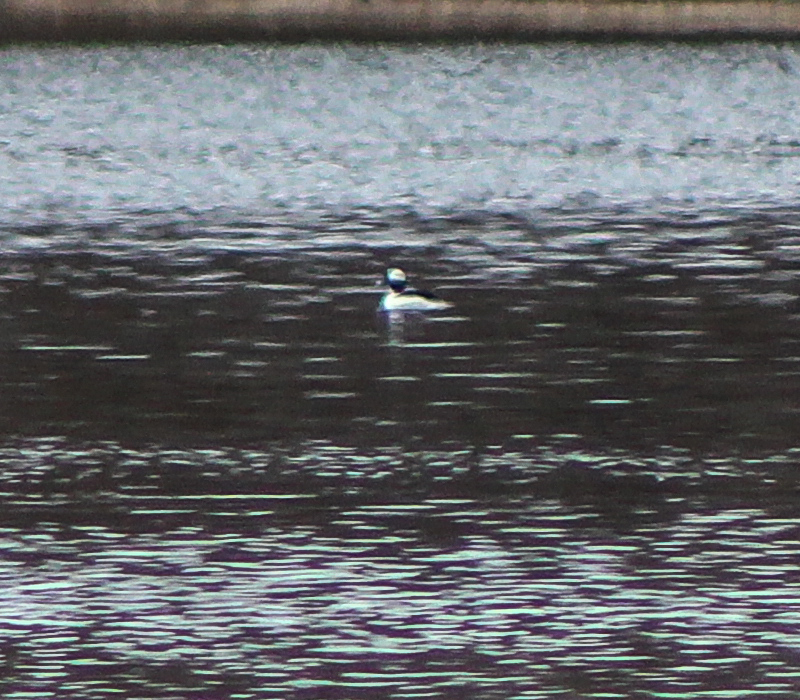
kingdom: Animalia
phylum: Chordata
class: Aves
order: Anseriformes
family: Anatidae
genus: Bucephala
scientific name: Bucephala albeola
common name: Bufflehead
